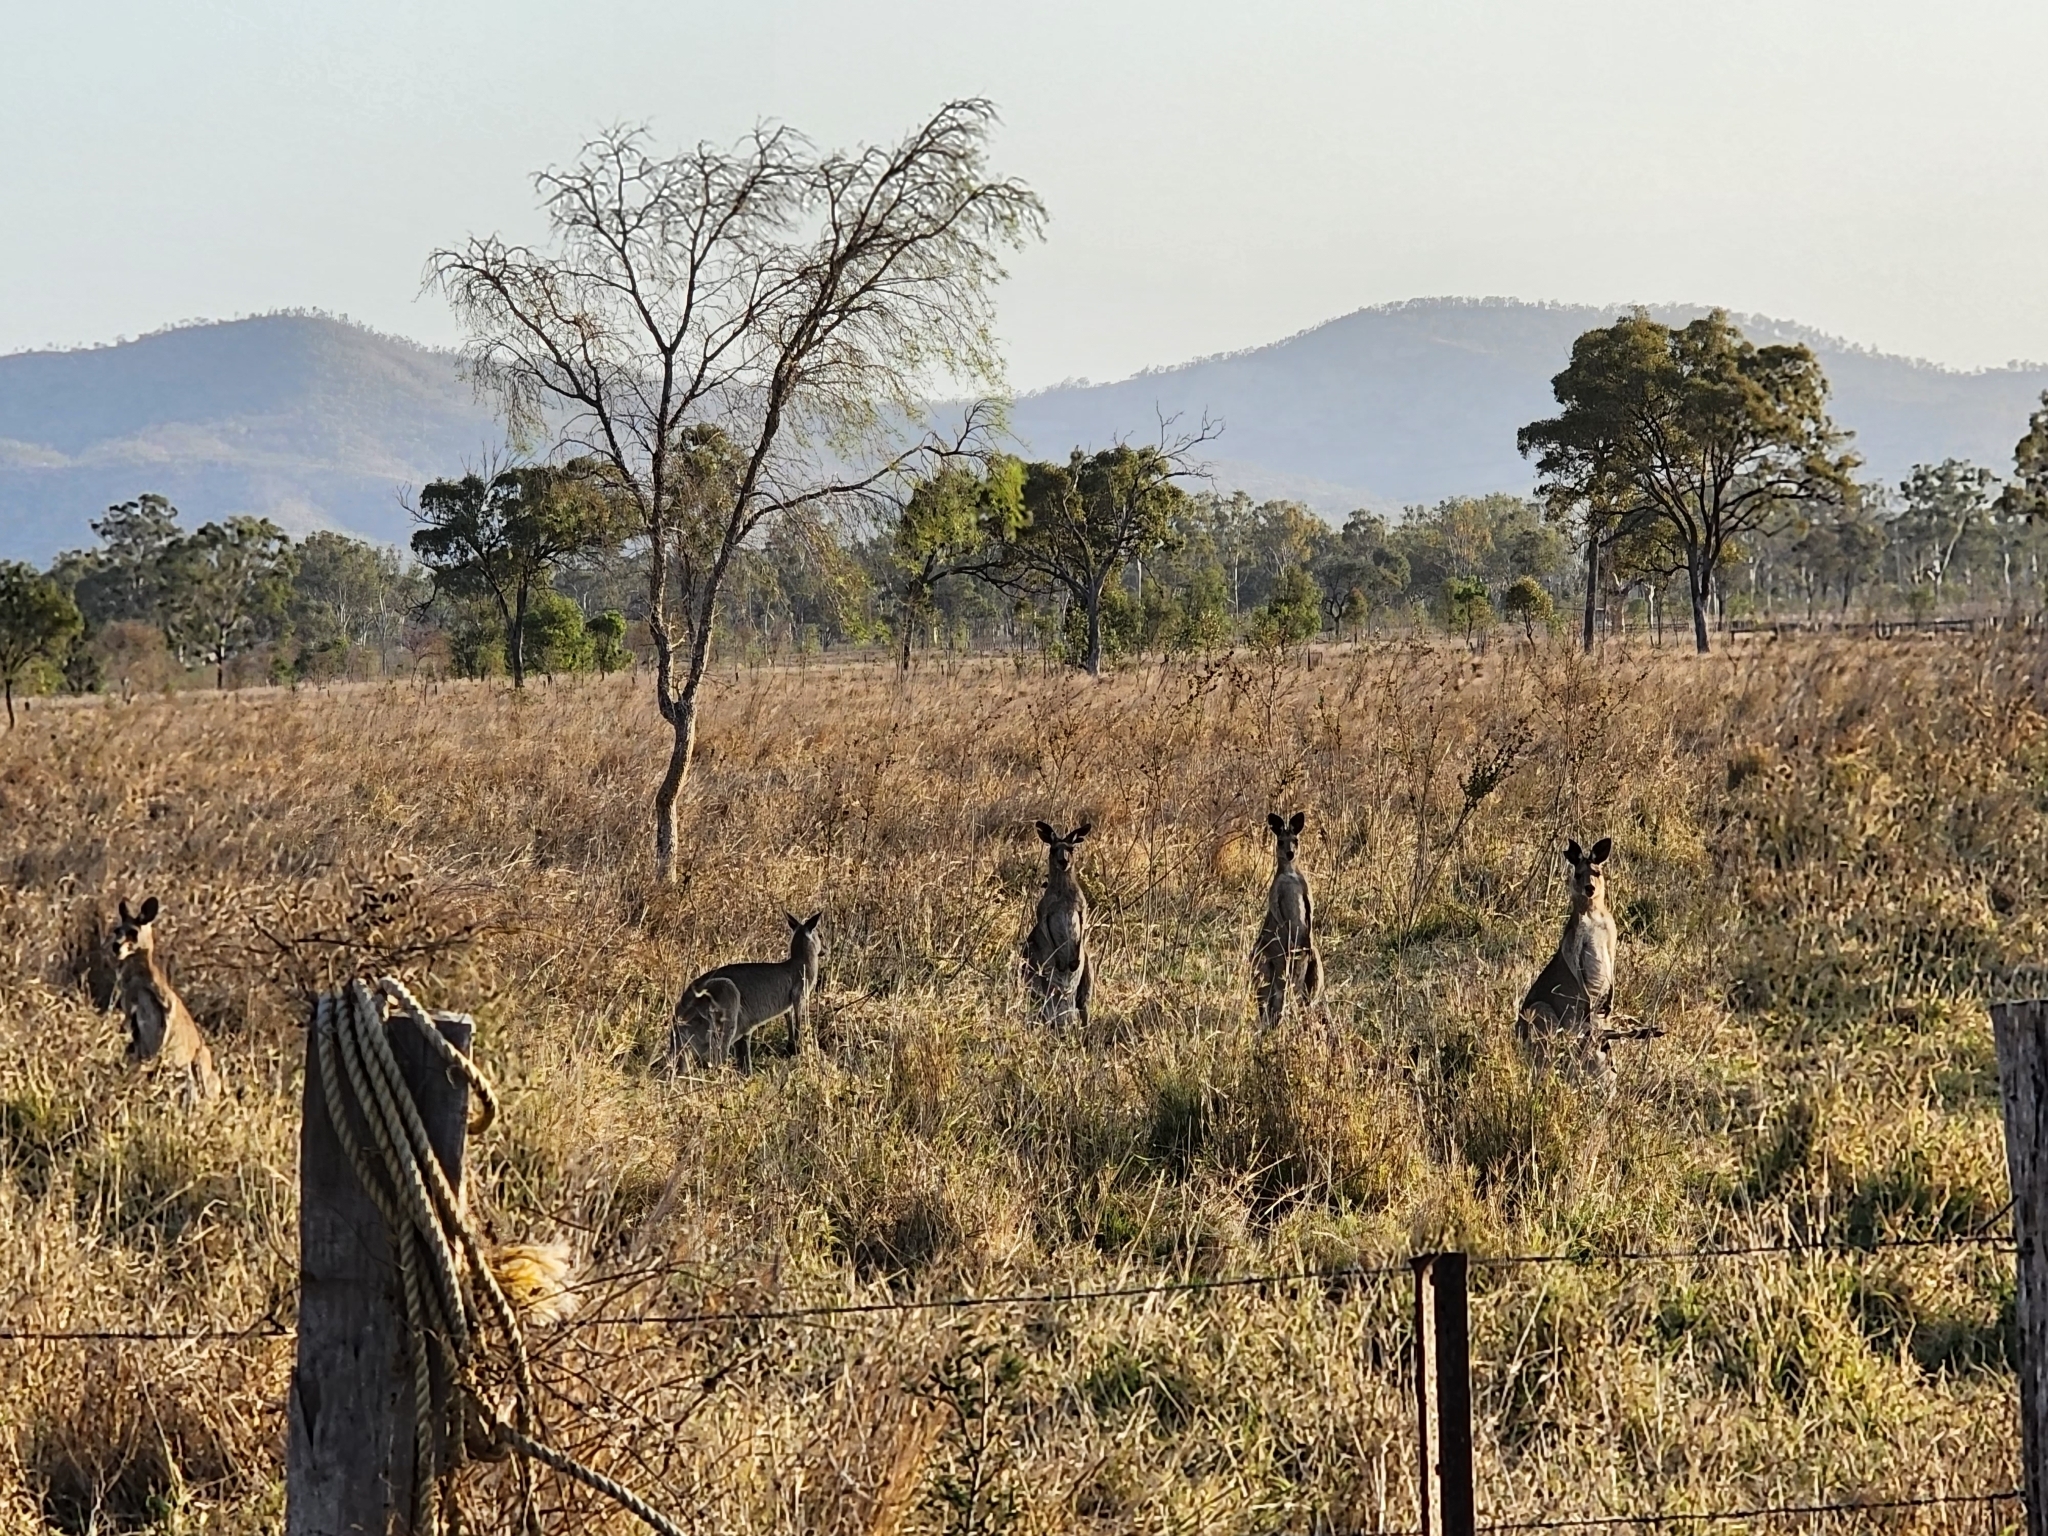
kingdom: Animalia
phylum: Chordata
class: Mammalia
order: Diprotodontia
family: Macropodidae
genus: Macropus
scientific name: Macropus giganteus
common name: Eastern grey kangaroo
